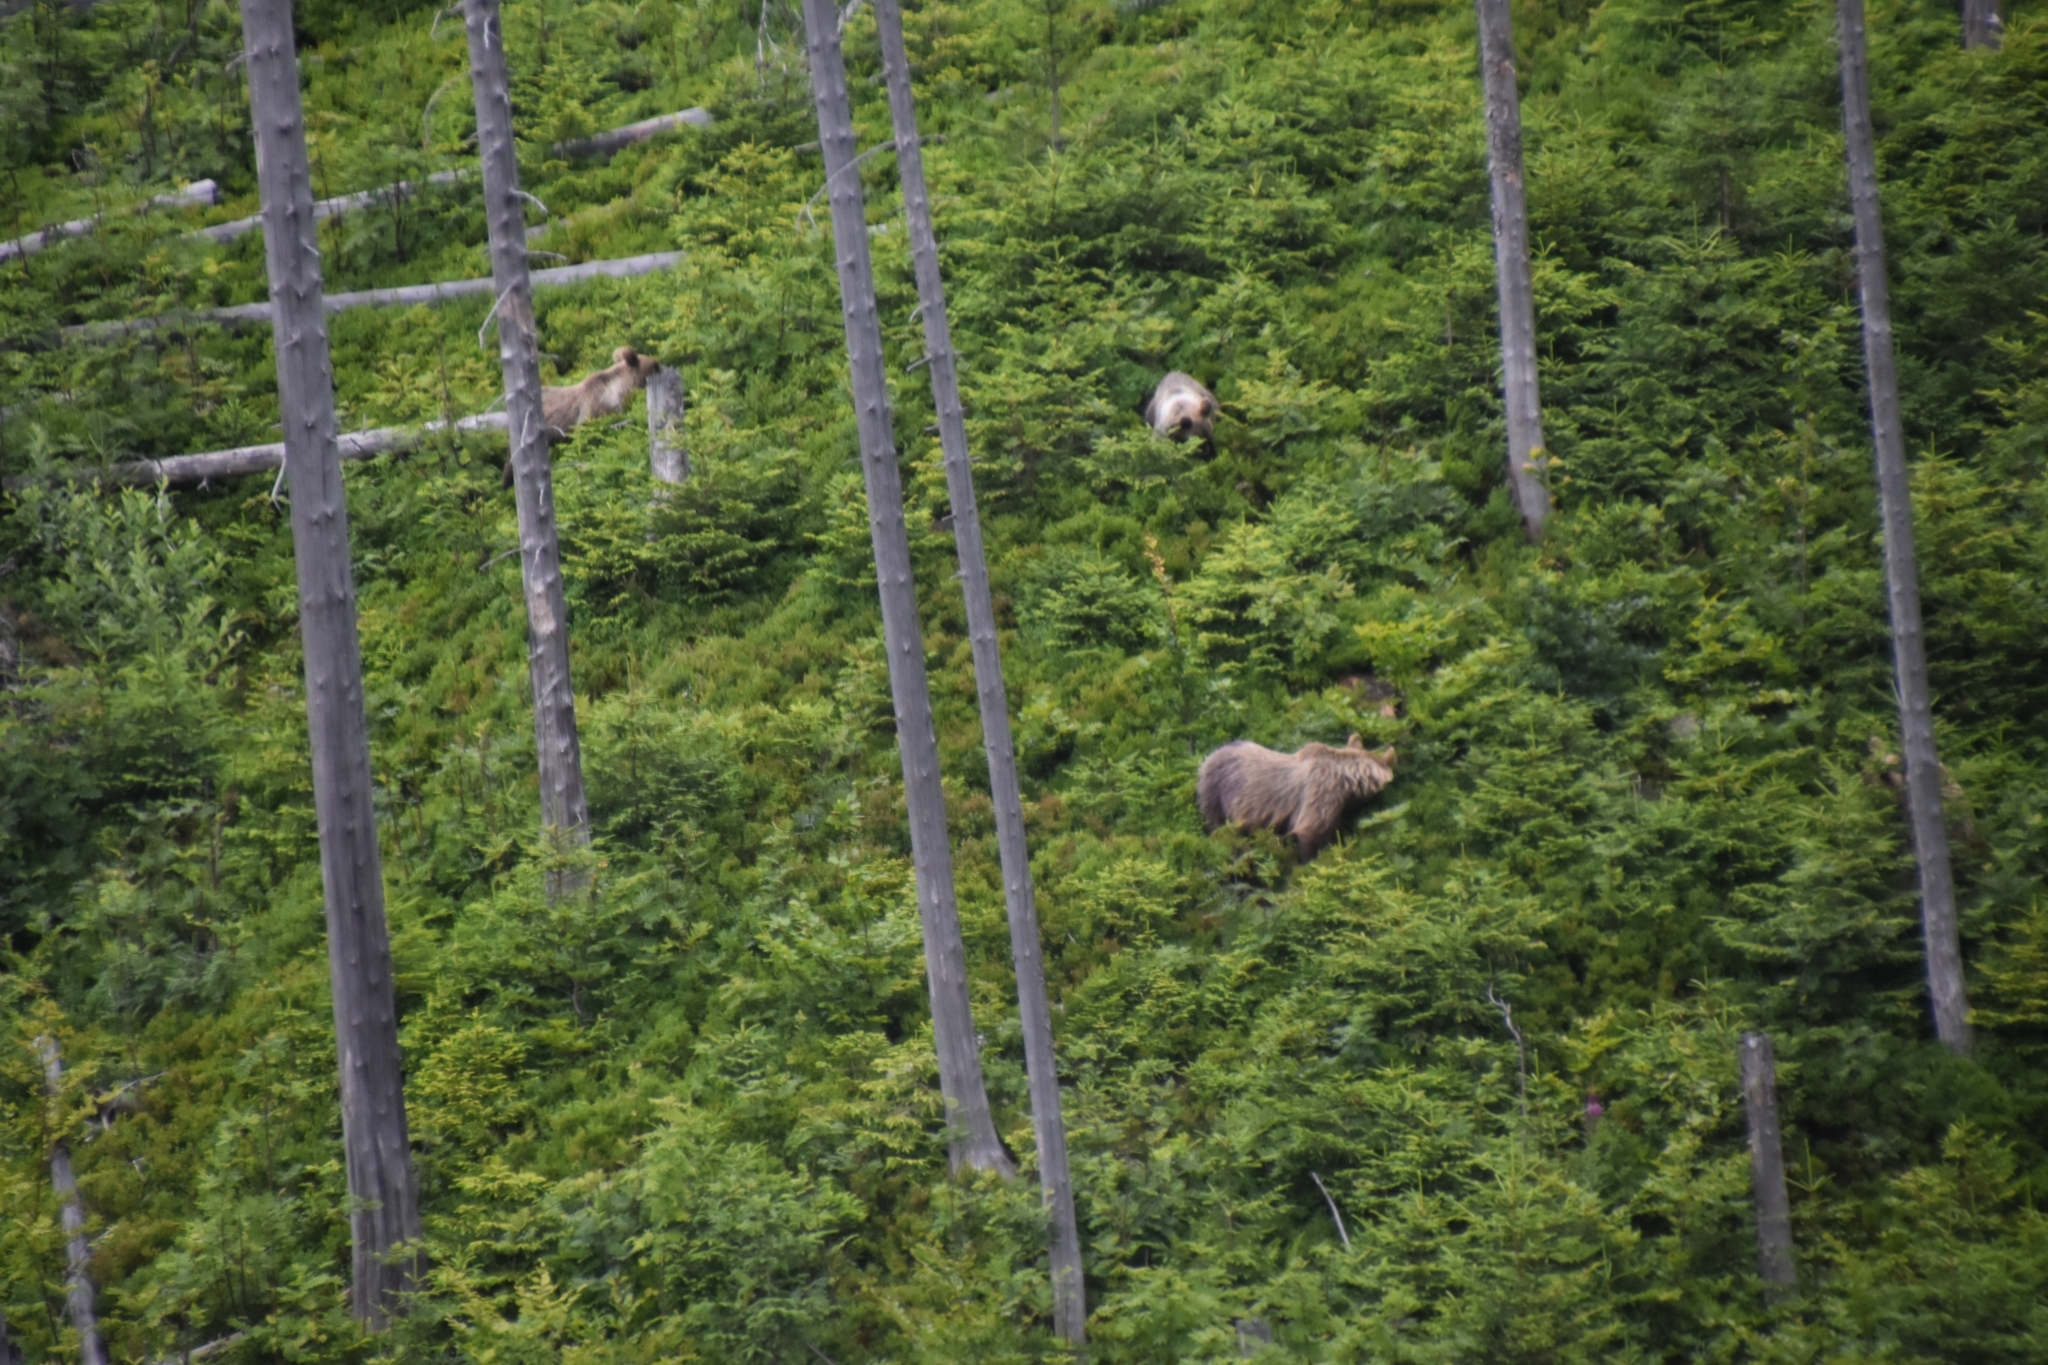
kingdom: Animalia
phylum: Chordata
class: Mammalia
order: Carnivora
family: Ursidae
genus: Ursus
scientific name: Ursus arctos
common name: Brown bear
